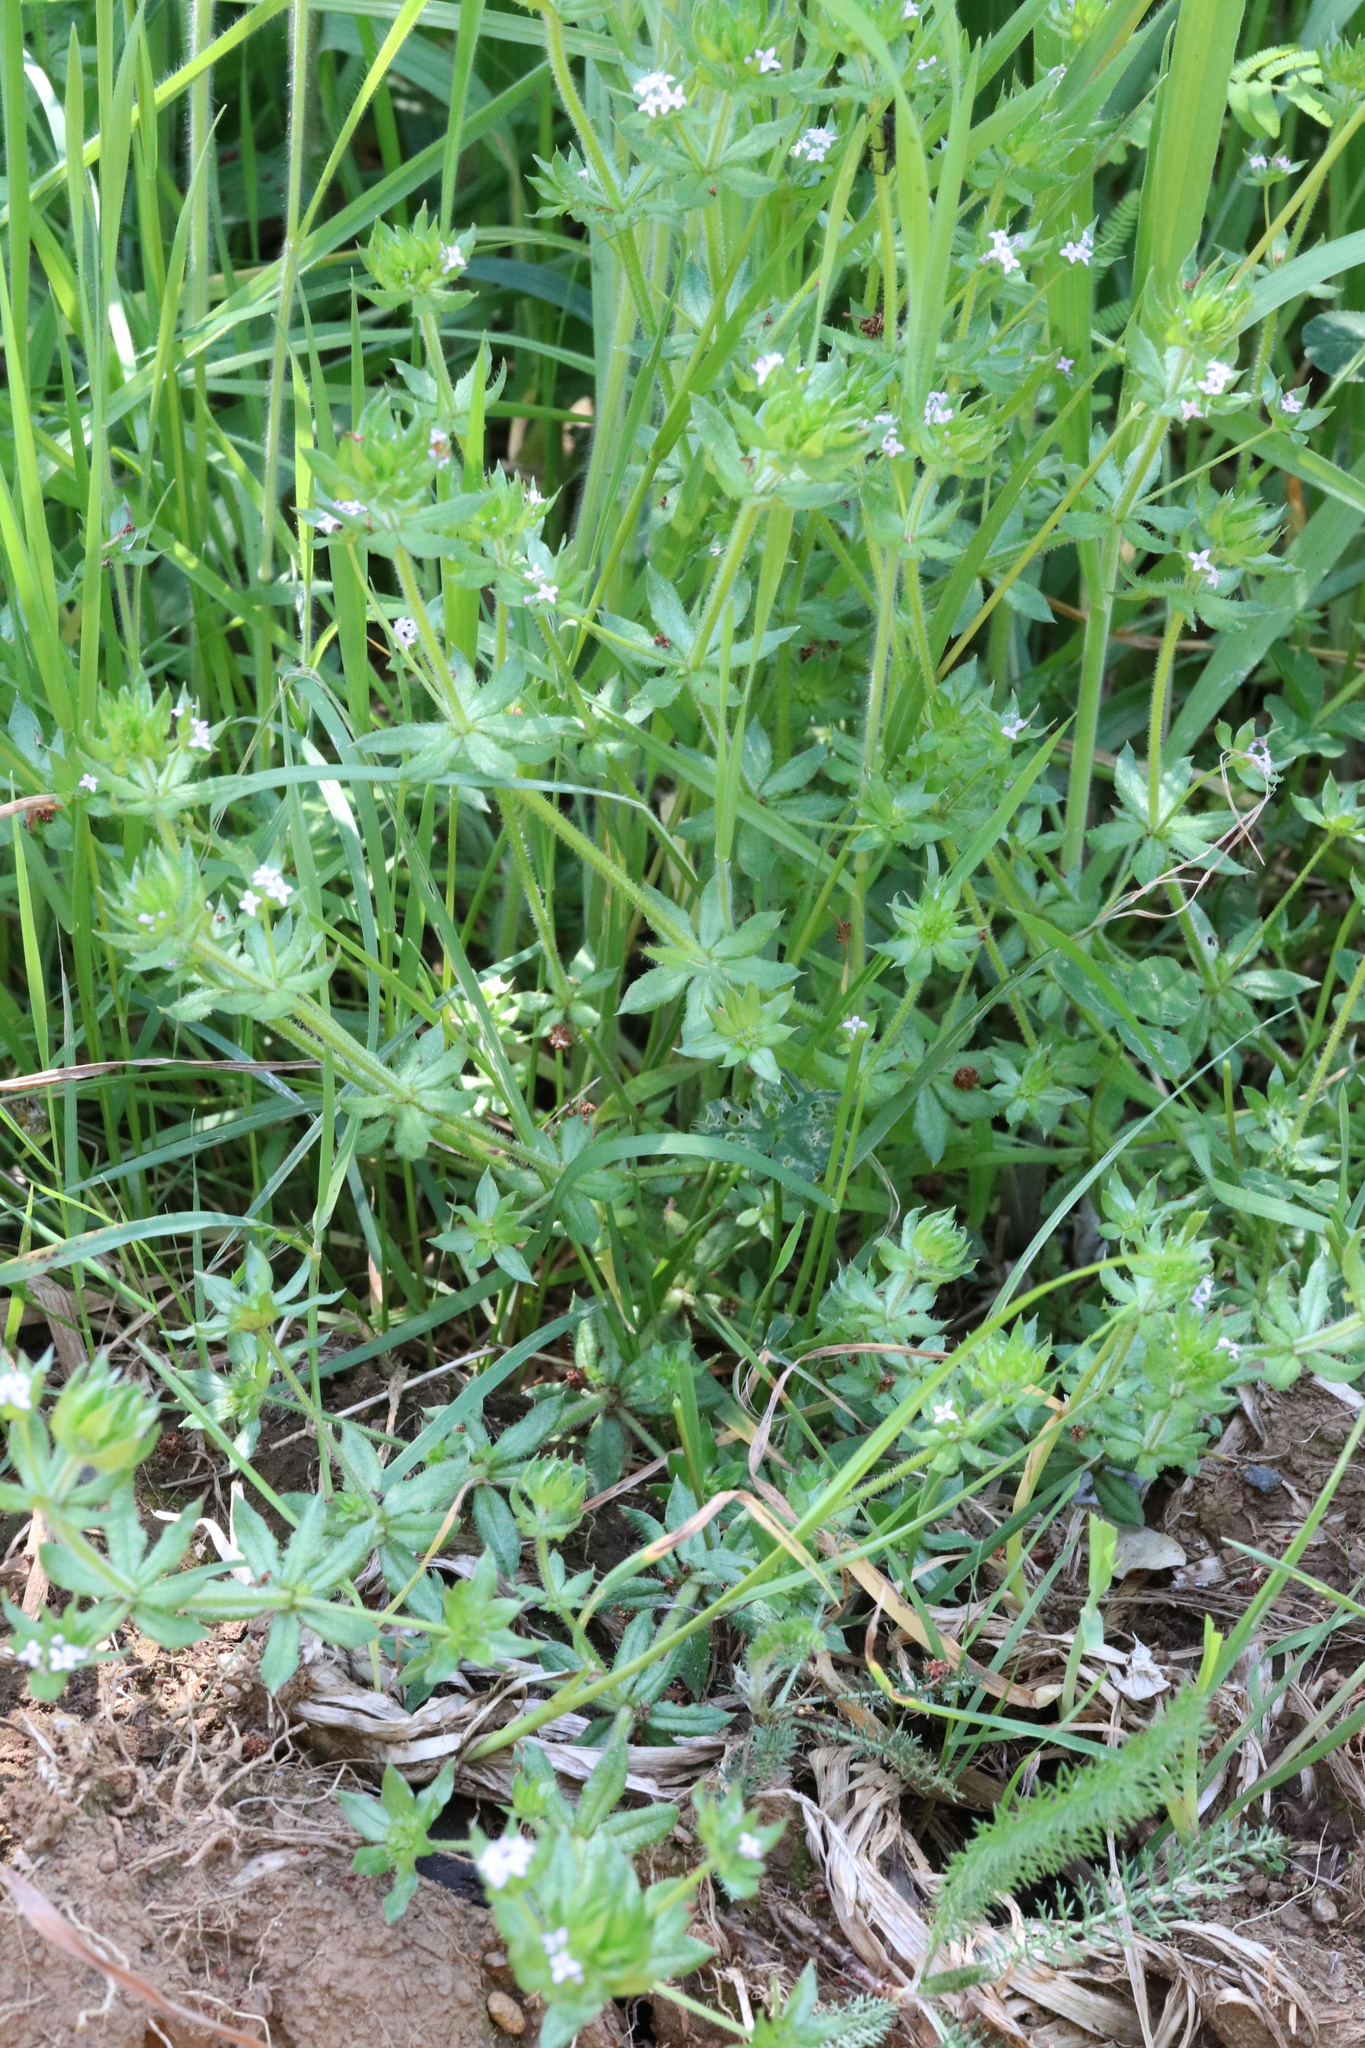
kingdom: Plantae
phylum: Tracheophyta
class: Magnoliopsida
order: Gentianales
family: Rubiaceae
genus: Sherardia
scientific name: Sherardia arvensis
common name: Field madder
